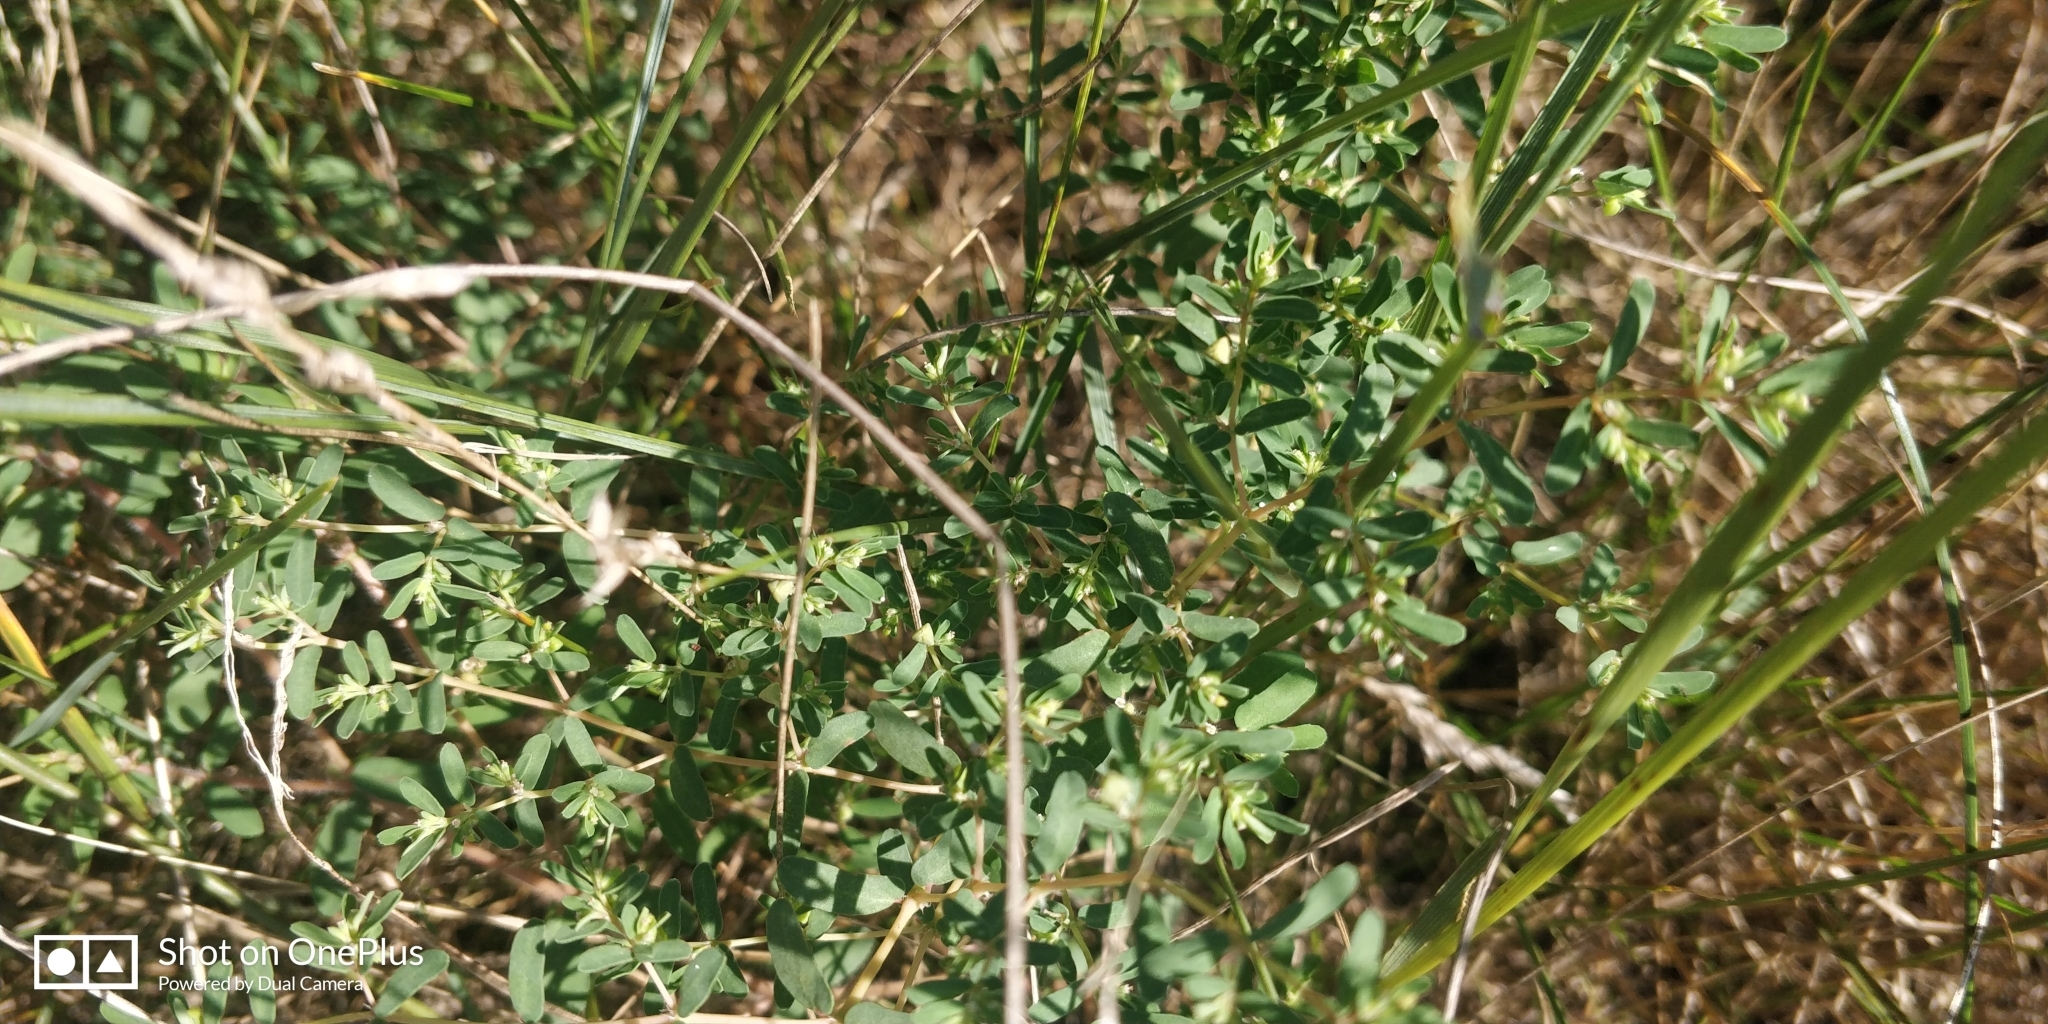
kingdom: Plantae
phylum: Tracheophyta
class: Magnoliopsida
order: Malpighiales
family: Euphorbiaceae
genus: Euphorbia
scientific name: Euphorbia glyptosperma
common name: Corrugate-seeded spurge
